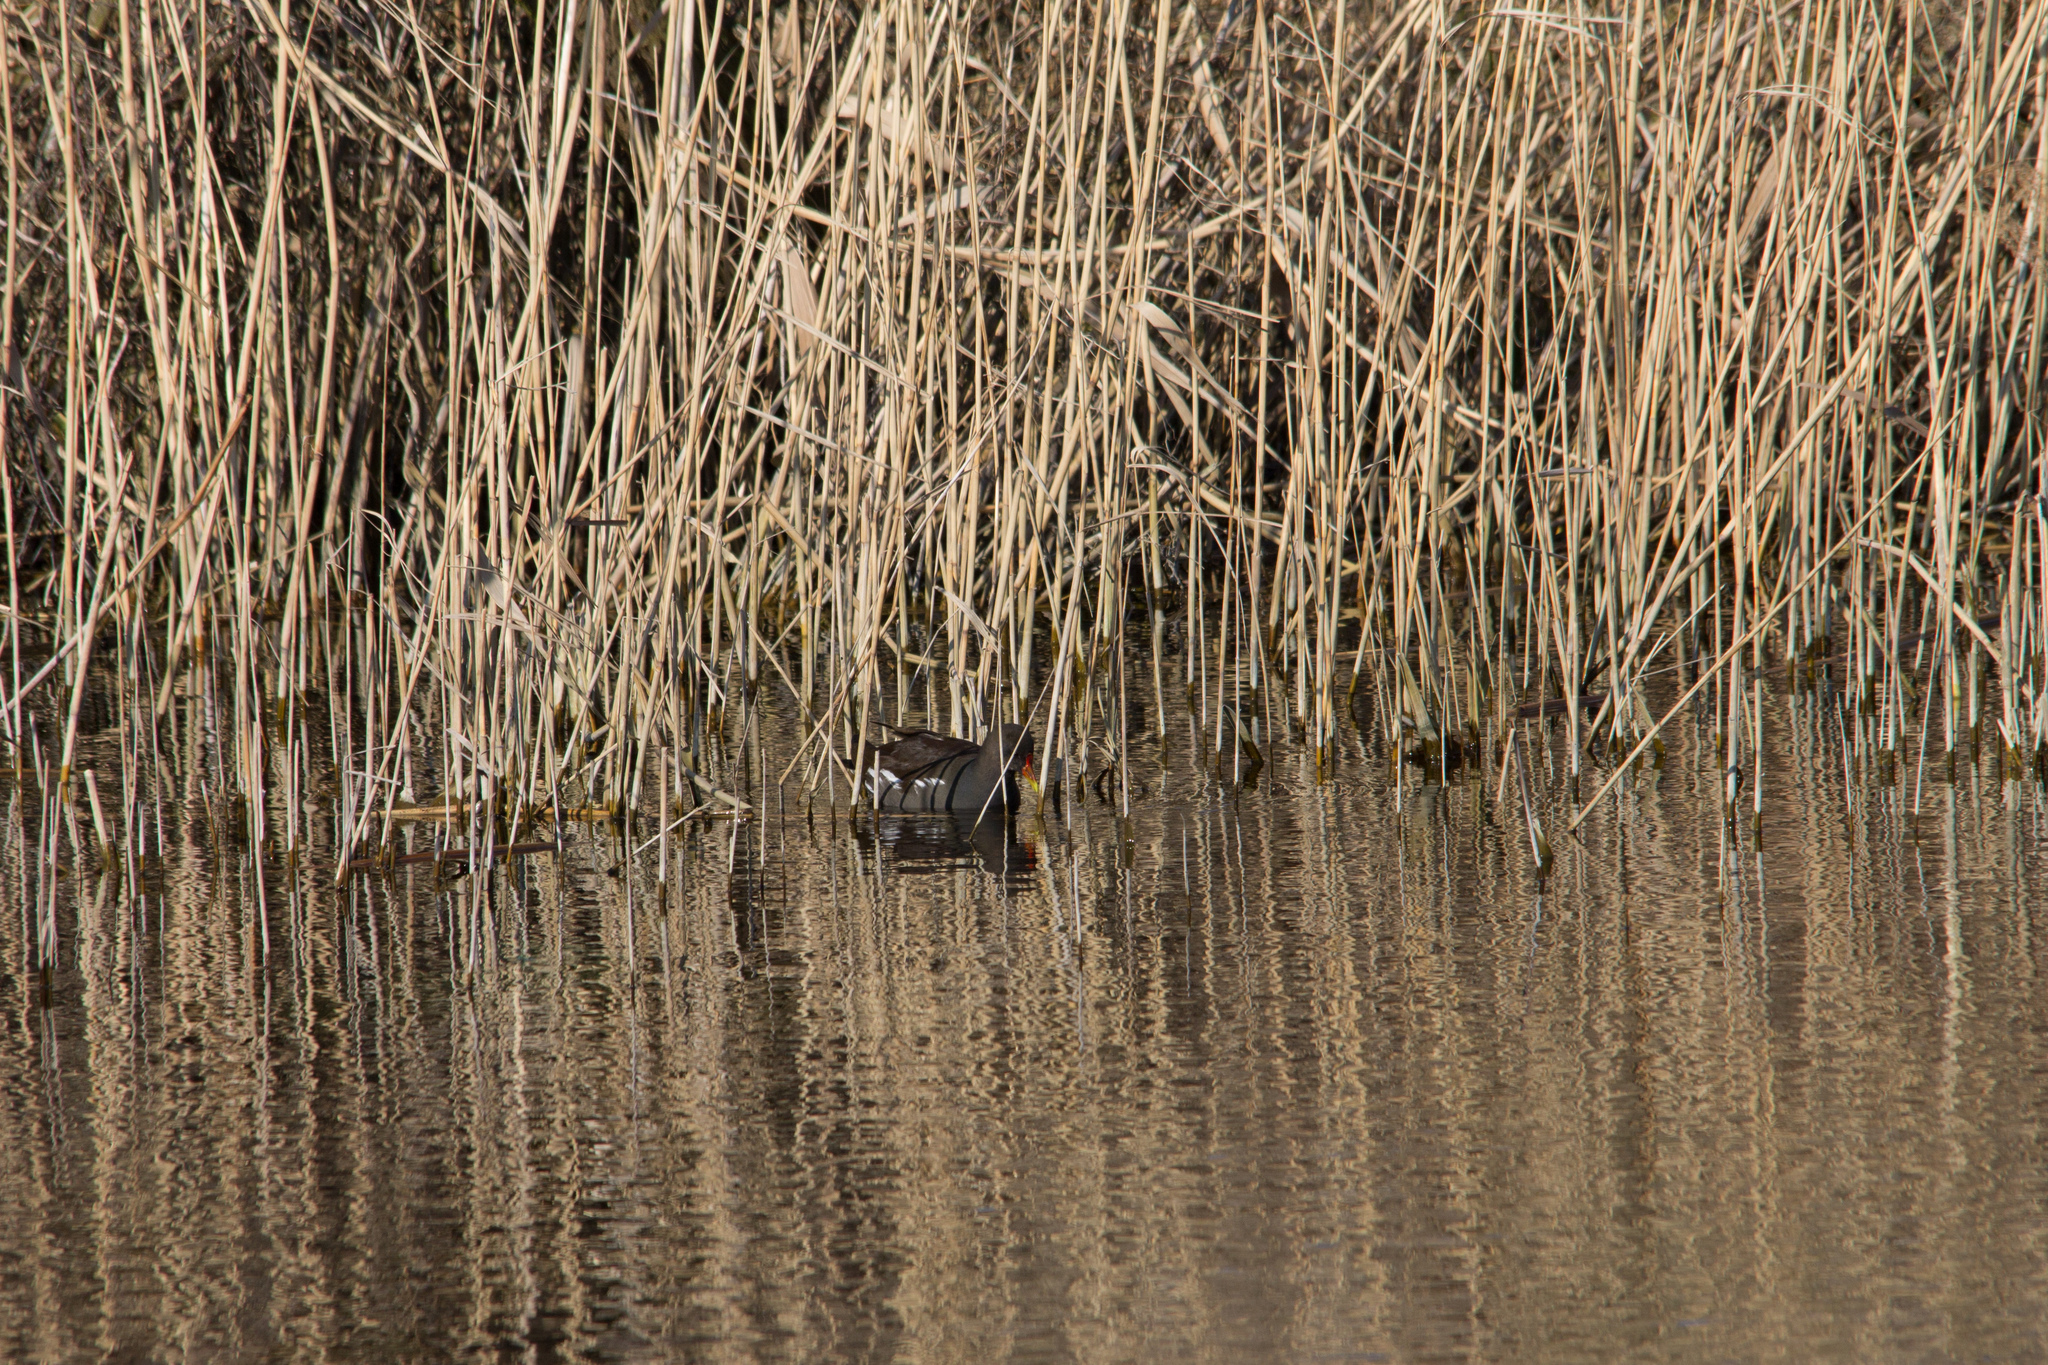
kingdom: Animalia
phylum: Chordata
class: Aves
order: Gruiformes
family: Rallidae
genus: Gallinula
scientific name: Gallinula chloropus
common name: Common moorhen
